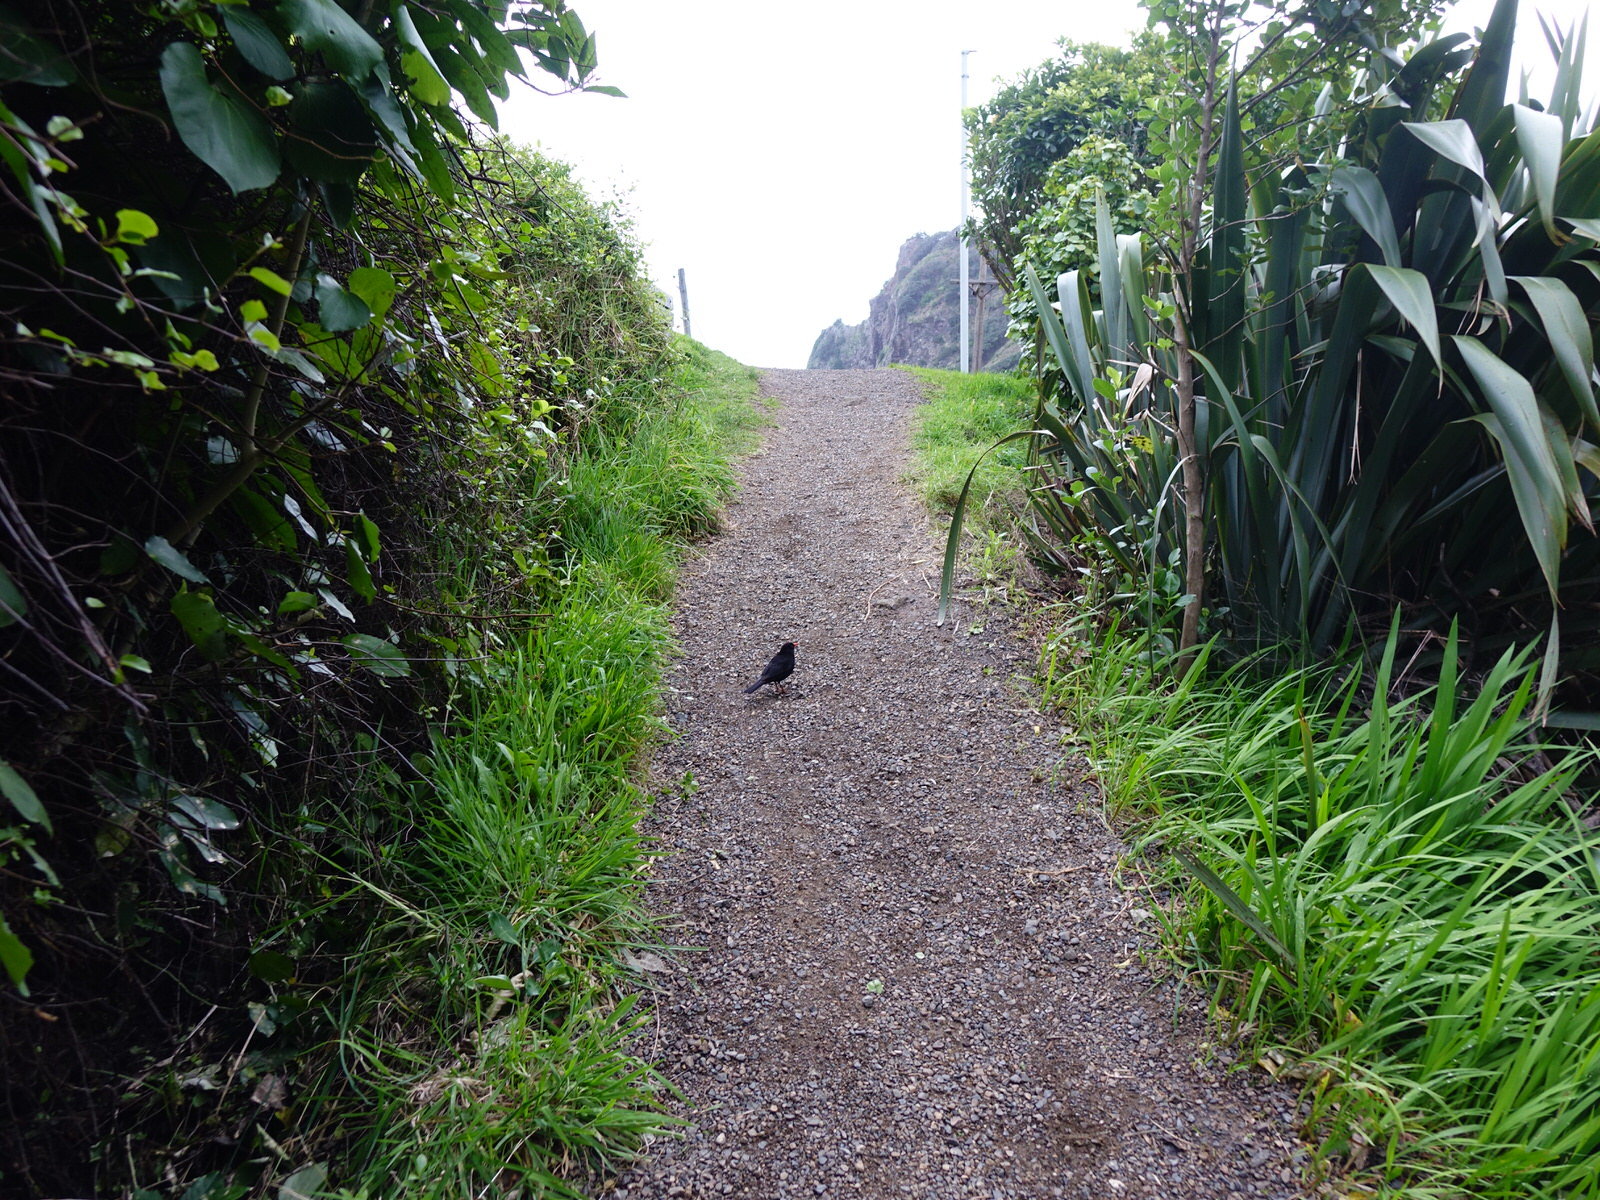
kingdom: Animalia
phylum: Chordata
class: Aves
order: Passeriformes
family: Turdidae
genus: Turdus
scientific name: Turdus merula
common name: Common blackbird
